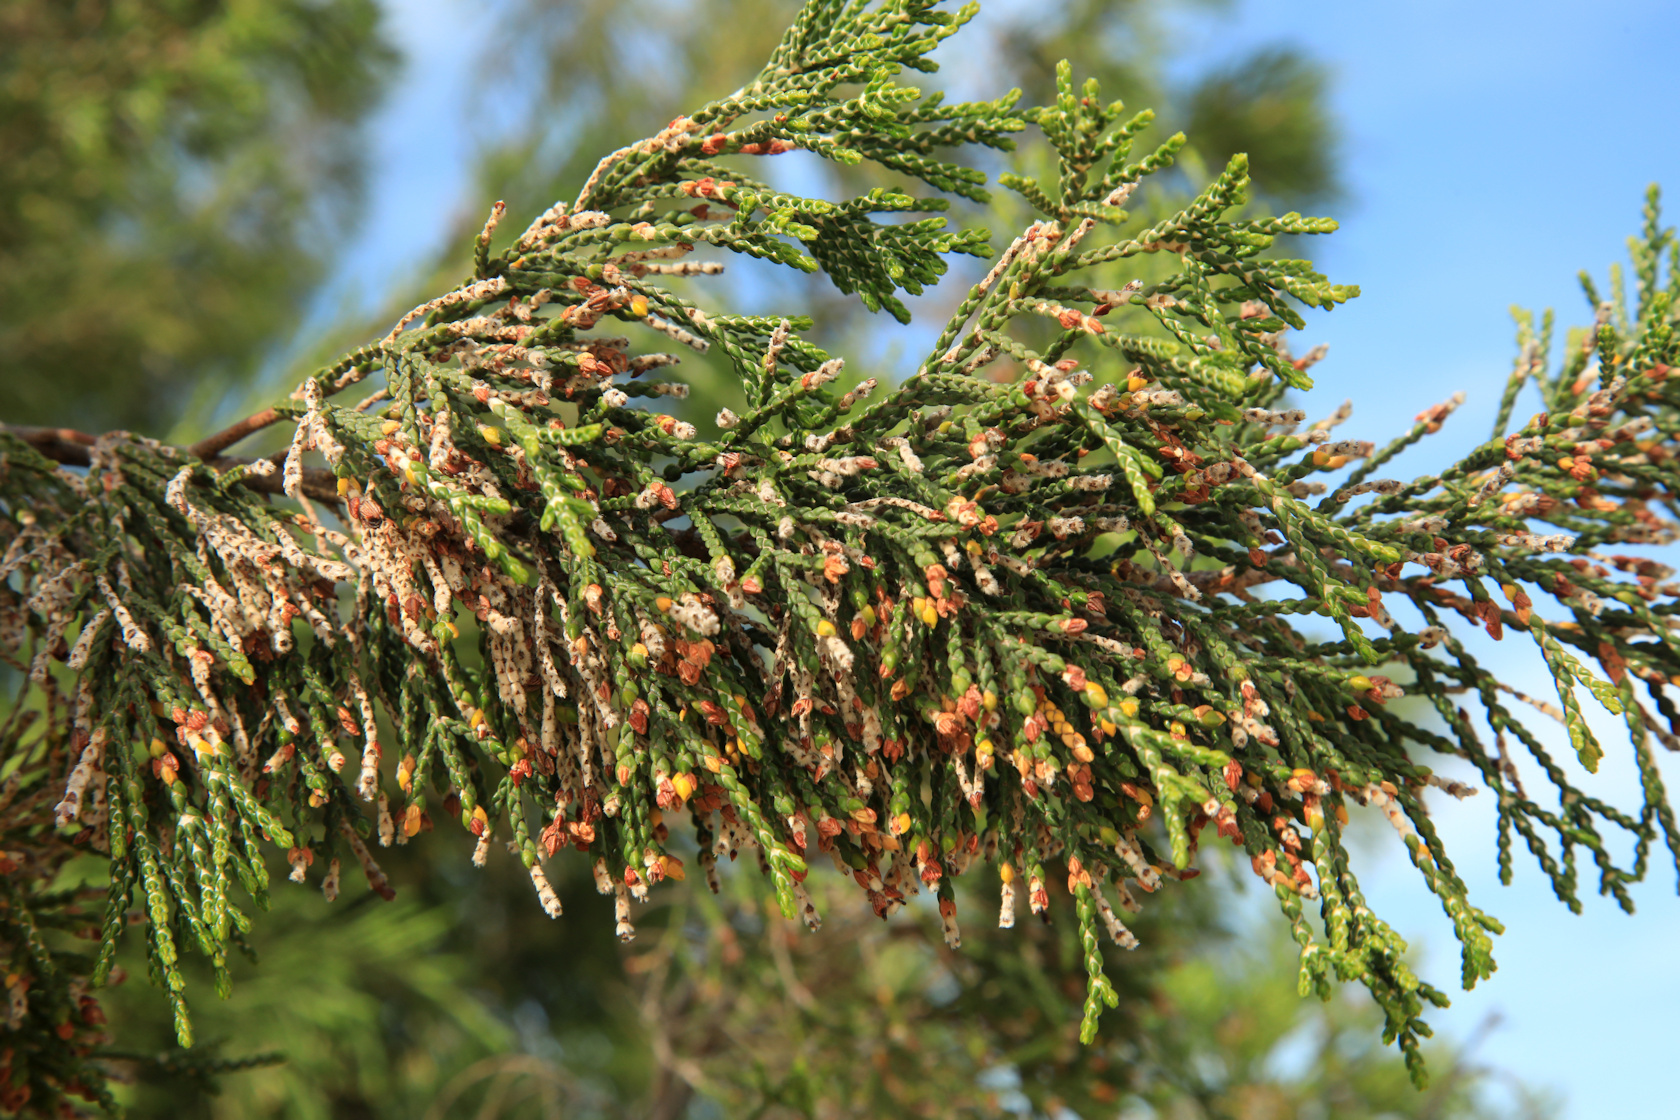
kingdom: Plantae
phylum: Tracheophyta
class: Magnoliopsida
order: Malvales
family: Thymelaeaceae
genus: Passerina
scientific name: Passerina rigida
